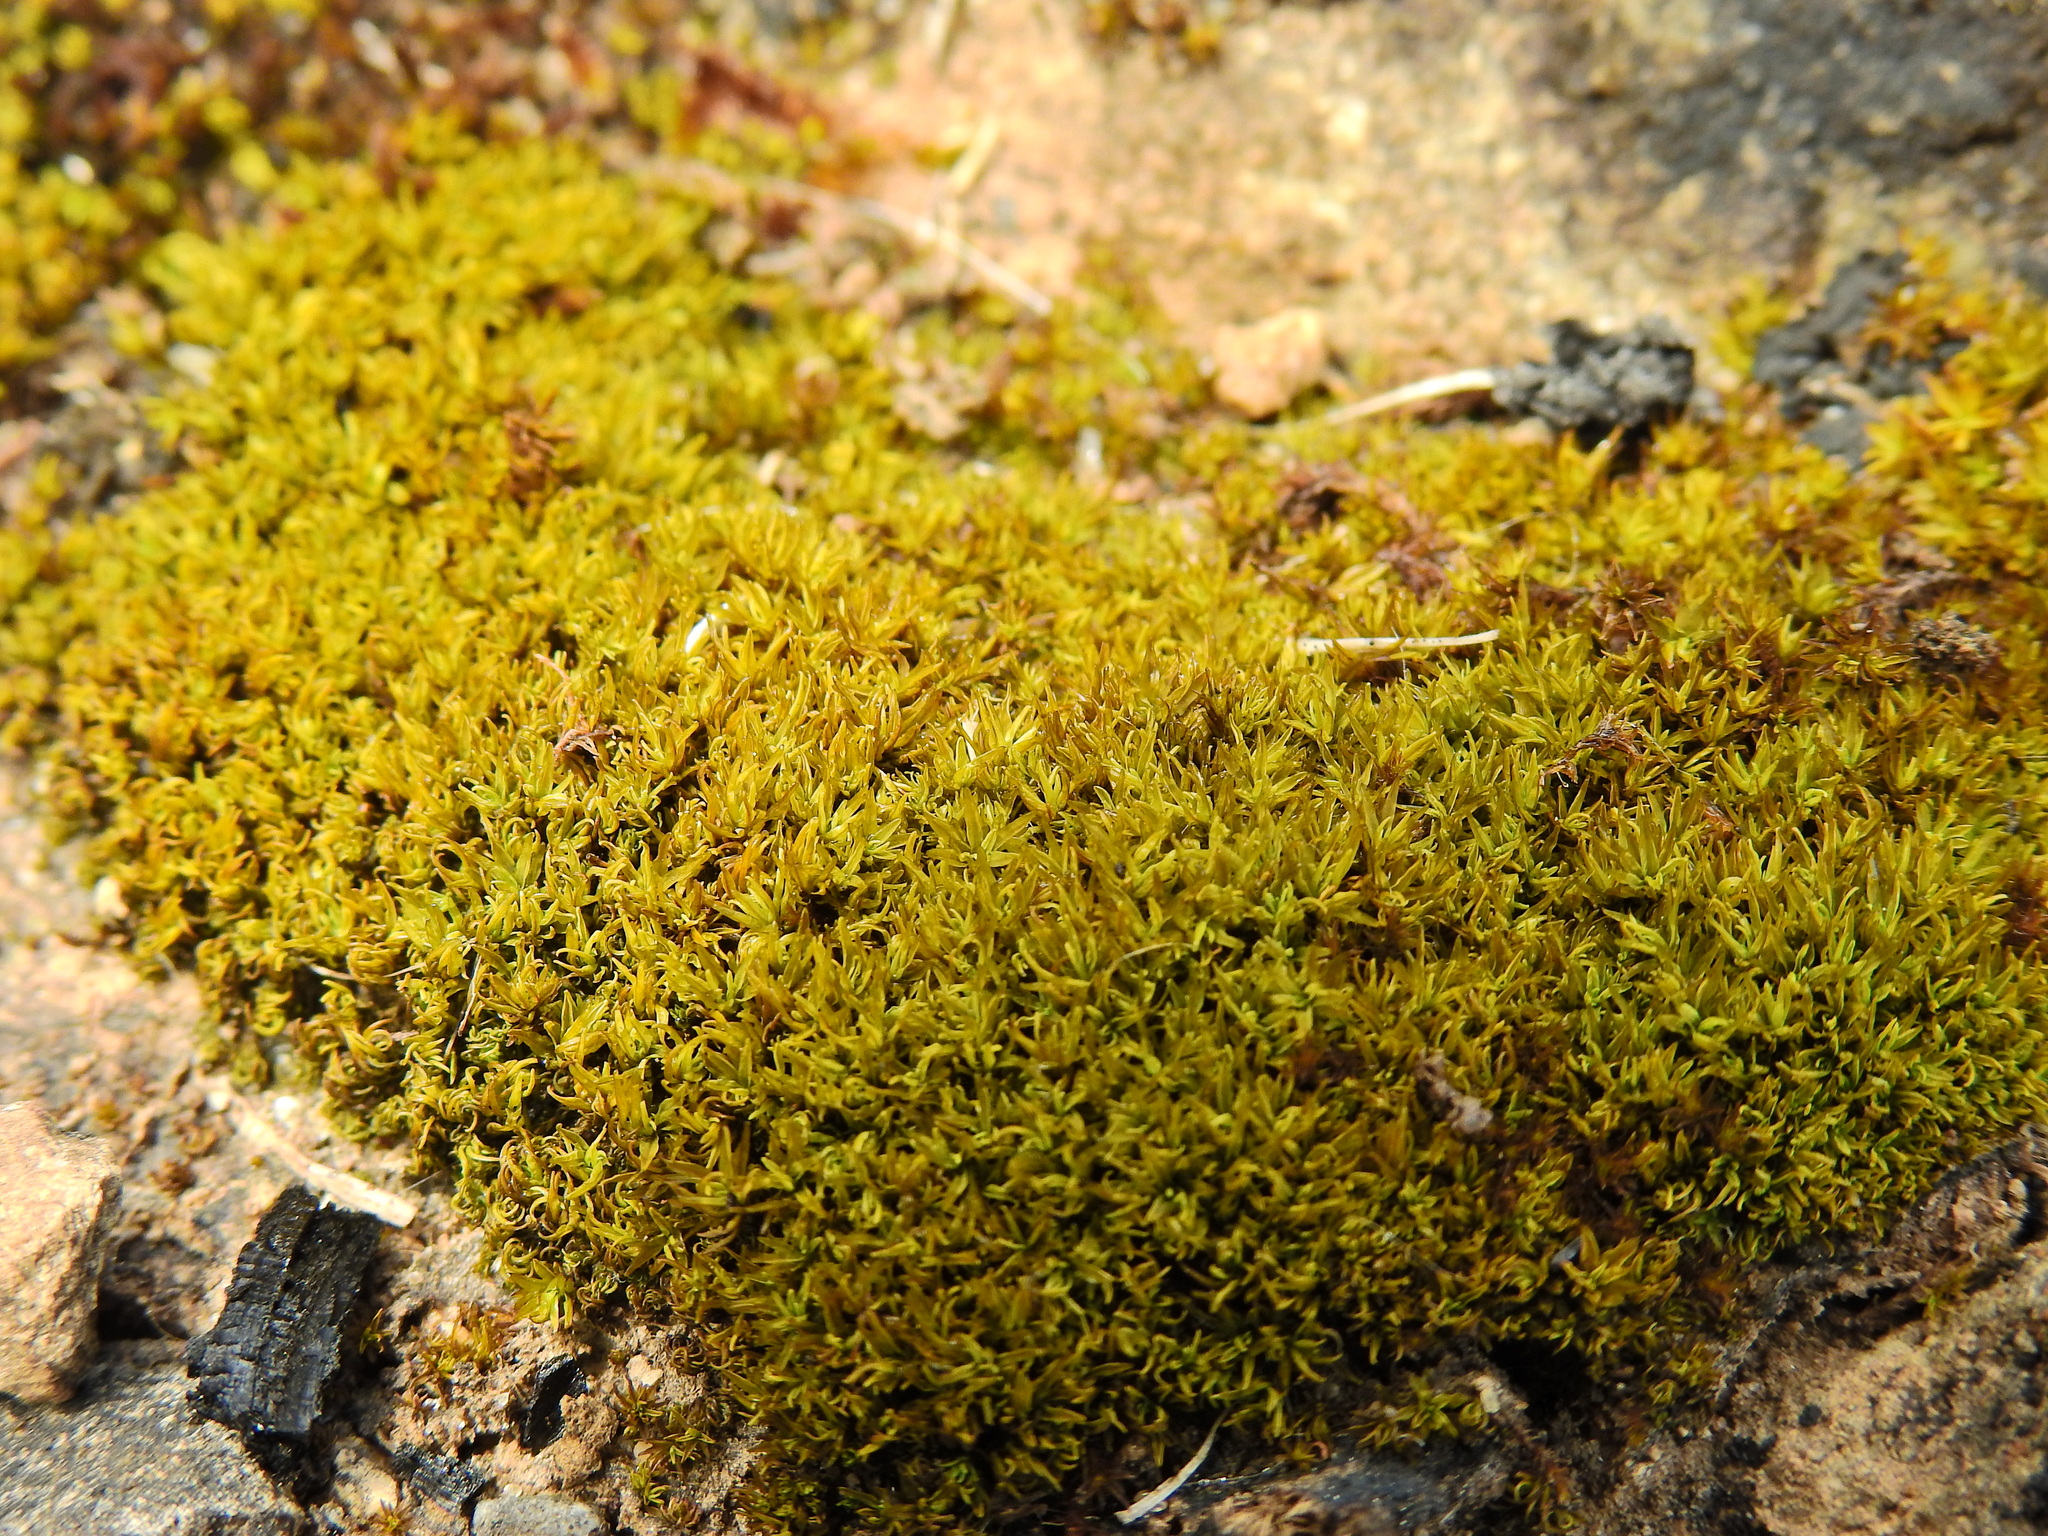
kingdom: Plantae
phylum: Bryophyta
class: Bryopsida
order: Pottiales
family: Pottiaceae
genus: Barbula
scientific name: Barbula unguiculata
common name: Prickly beard moss
